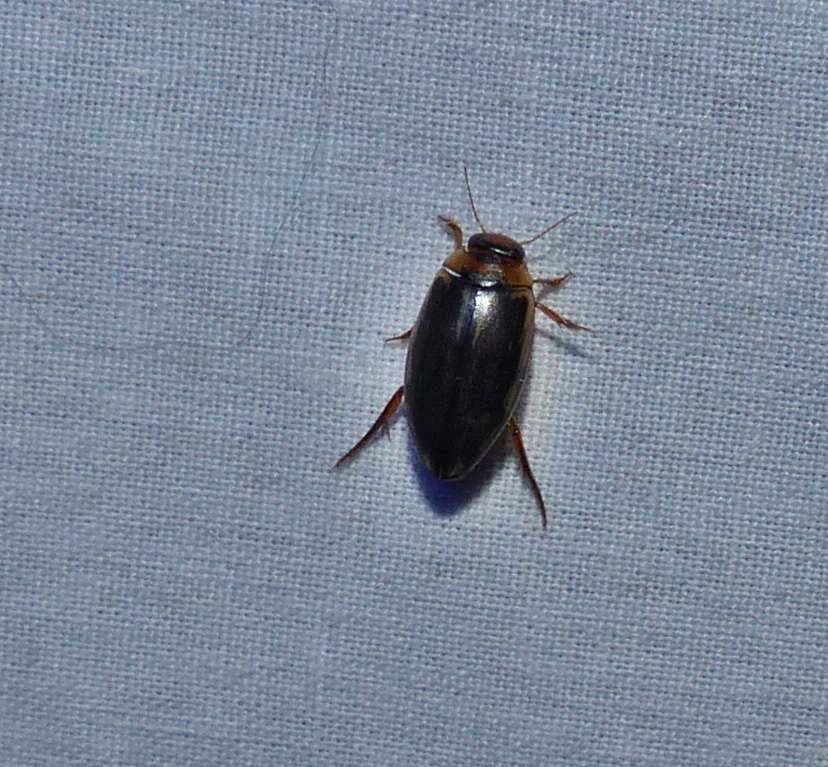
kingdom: Animalia
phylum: Arthropoda
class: Insecta
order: Coleoptera
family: Dytiscidae
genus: Coptotomus
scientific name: Coptotomus longulus
